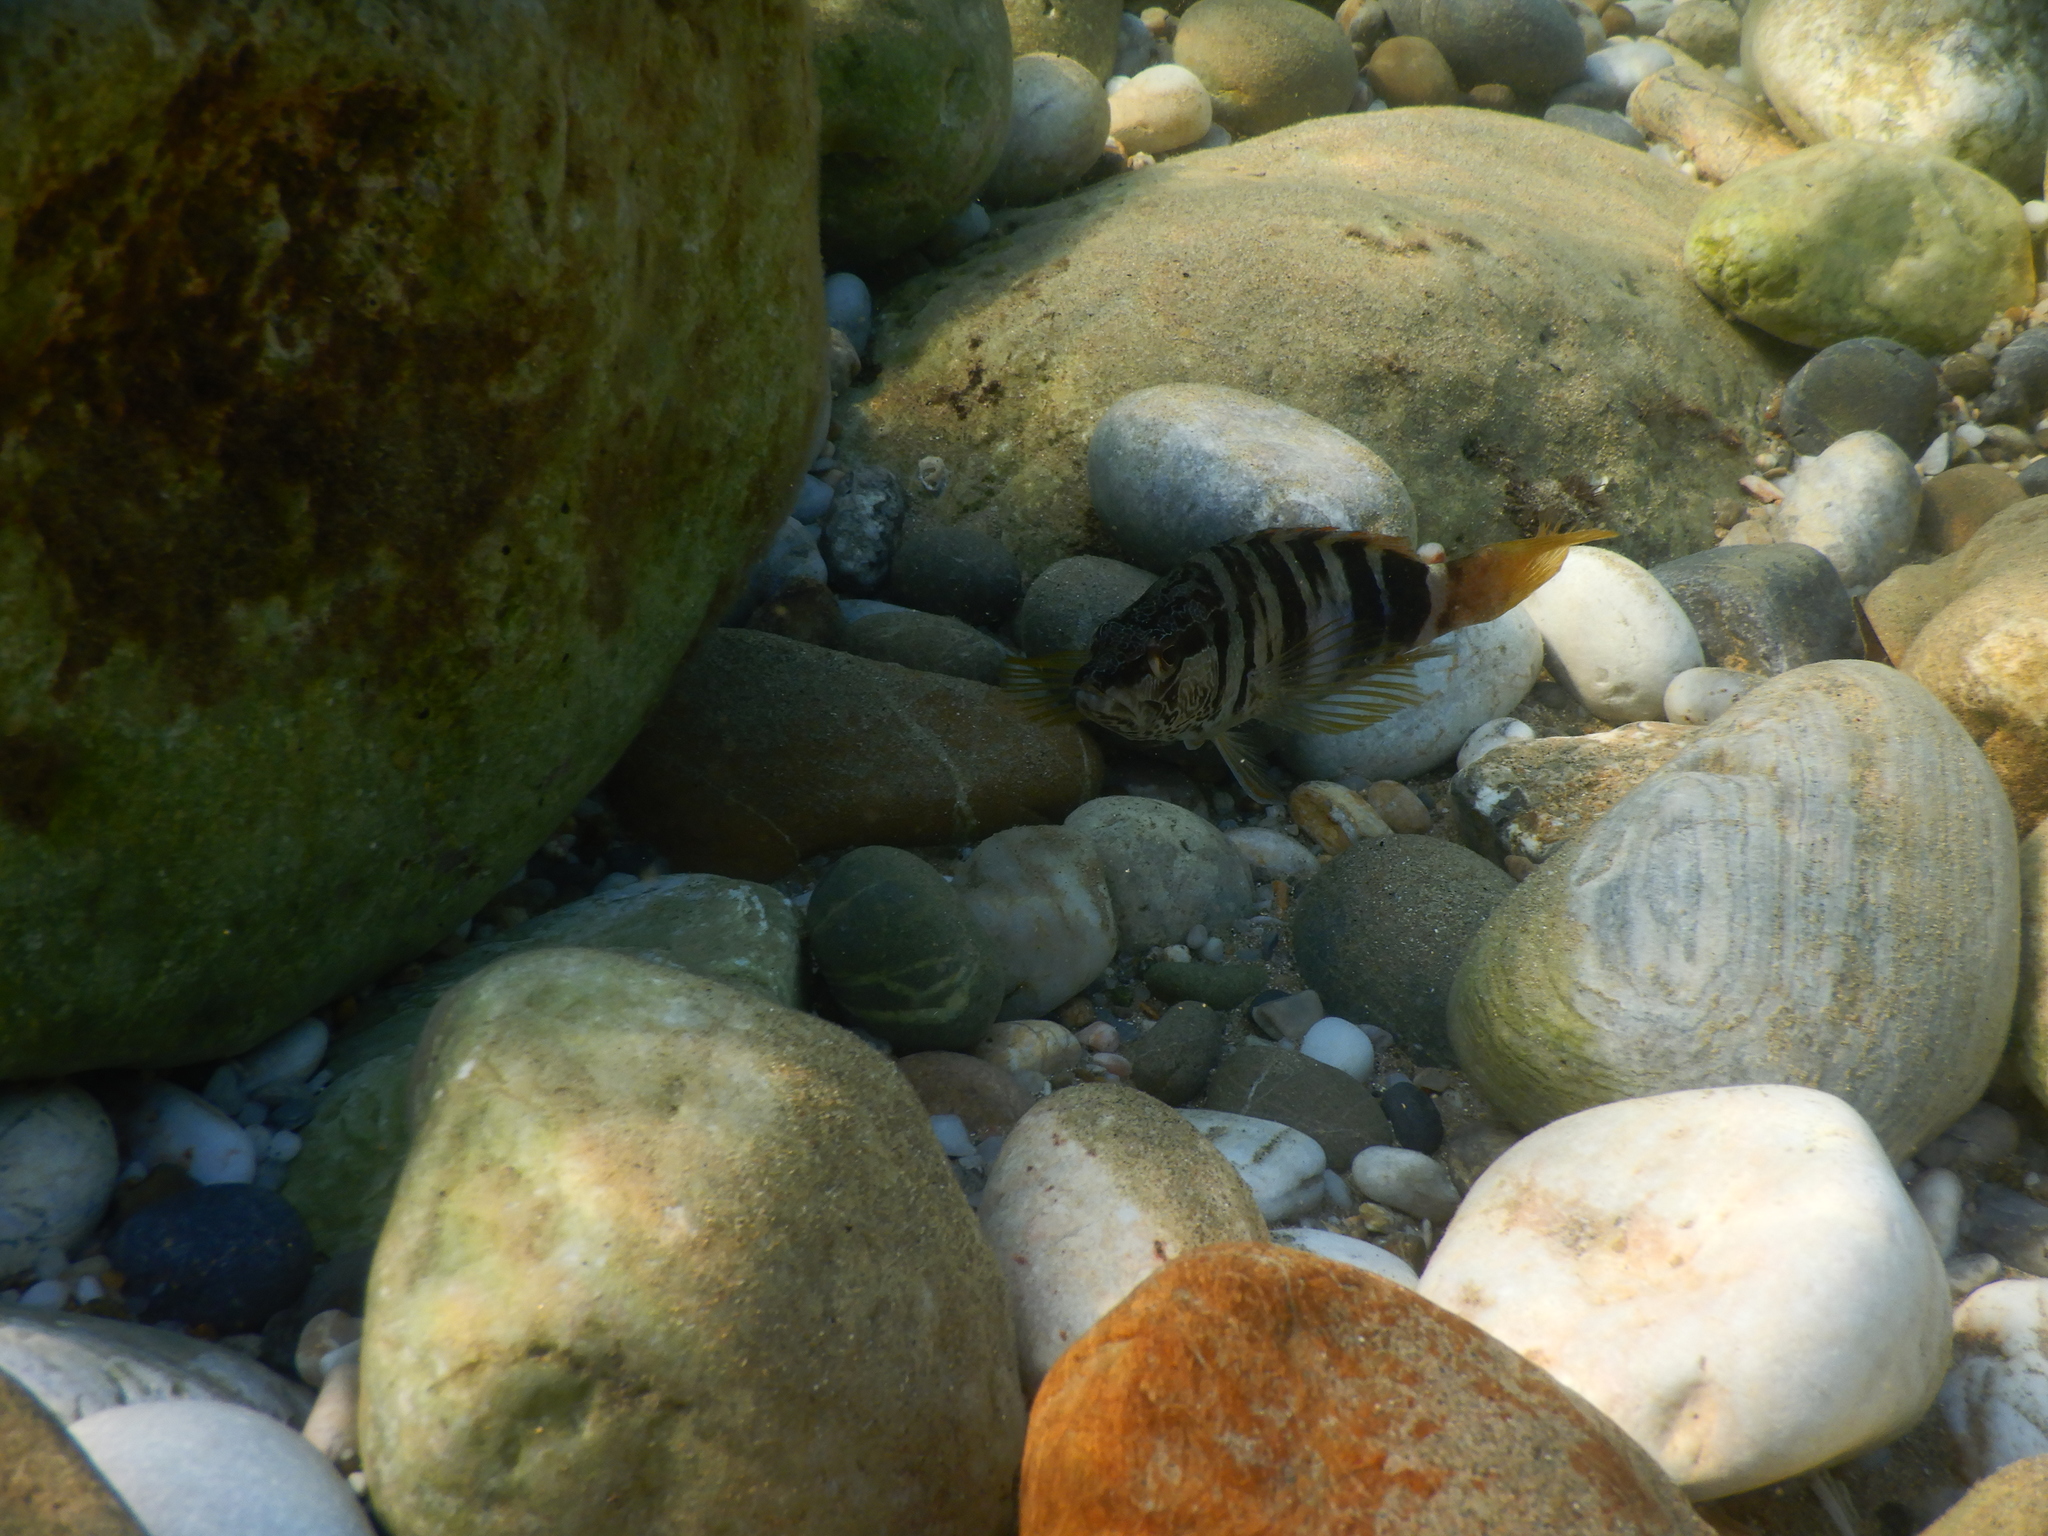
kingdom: Animalia
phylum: Chordata
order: Perciformes
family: Serranidae
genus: Serranus
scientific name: Serranus scriba
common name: Painted comber
